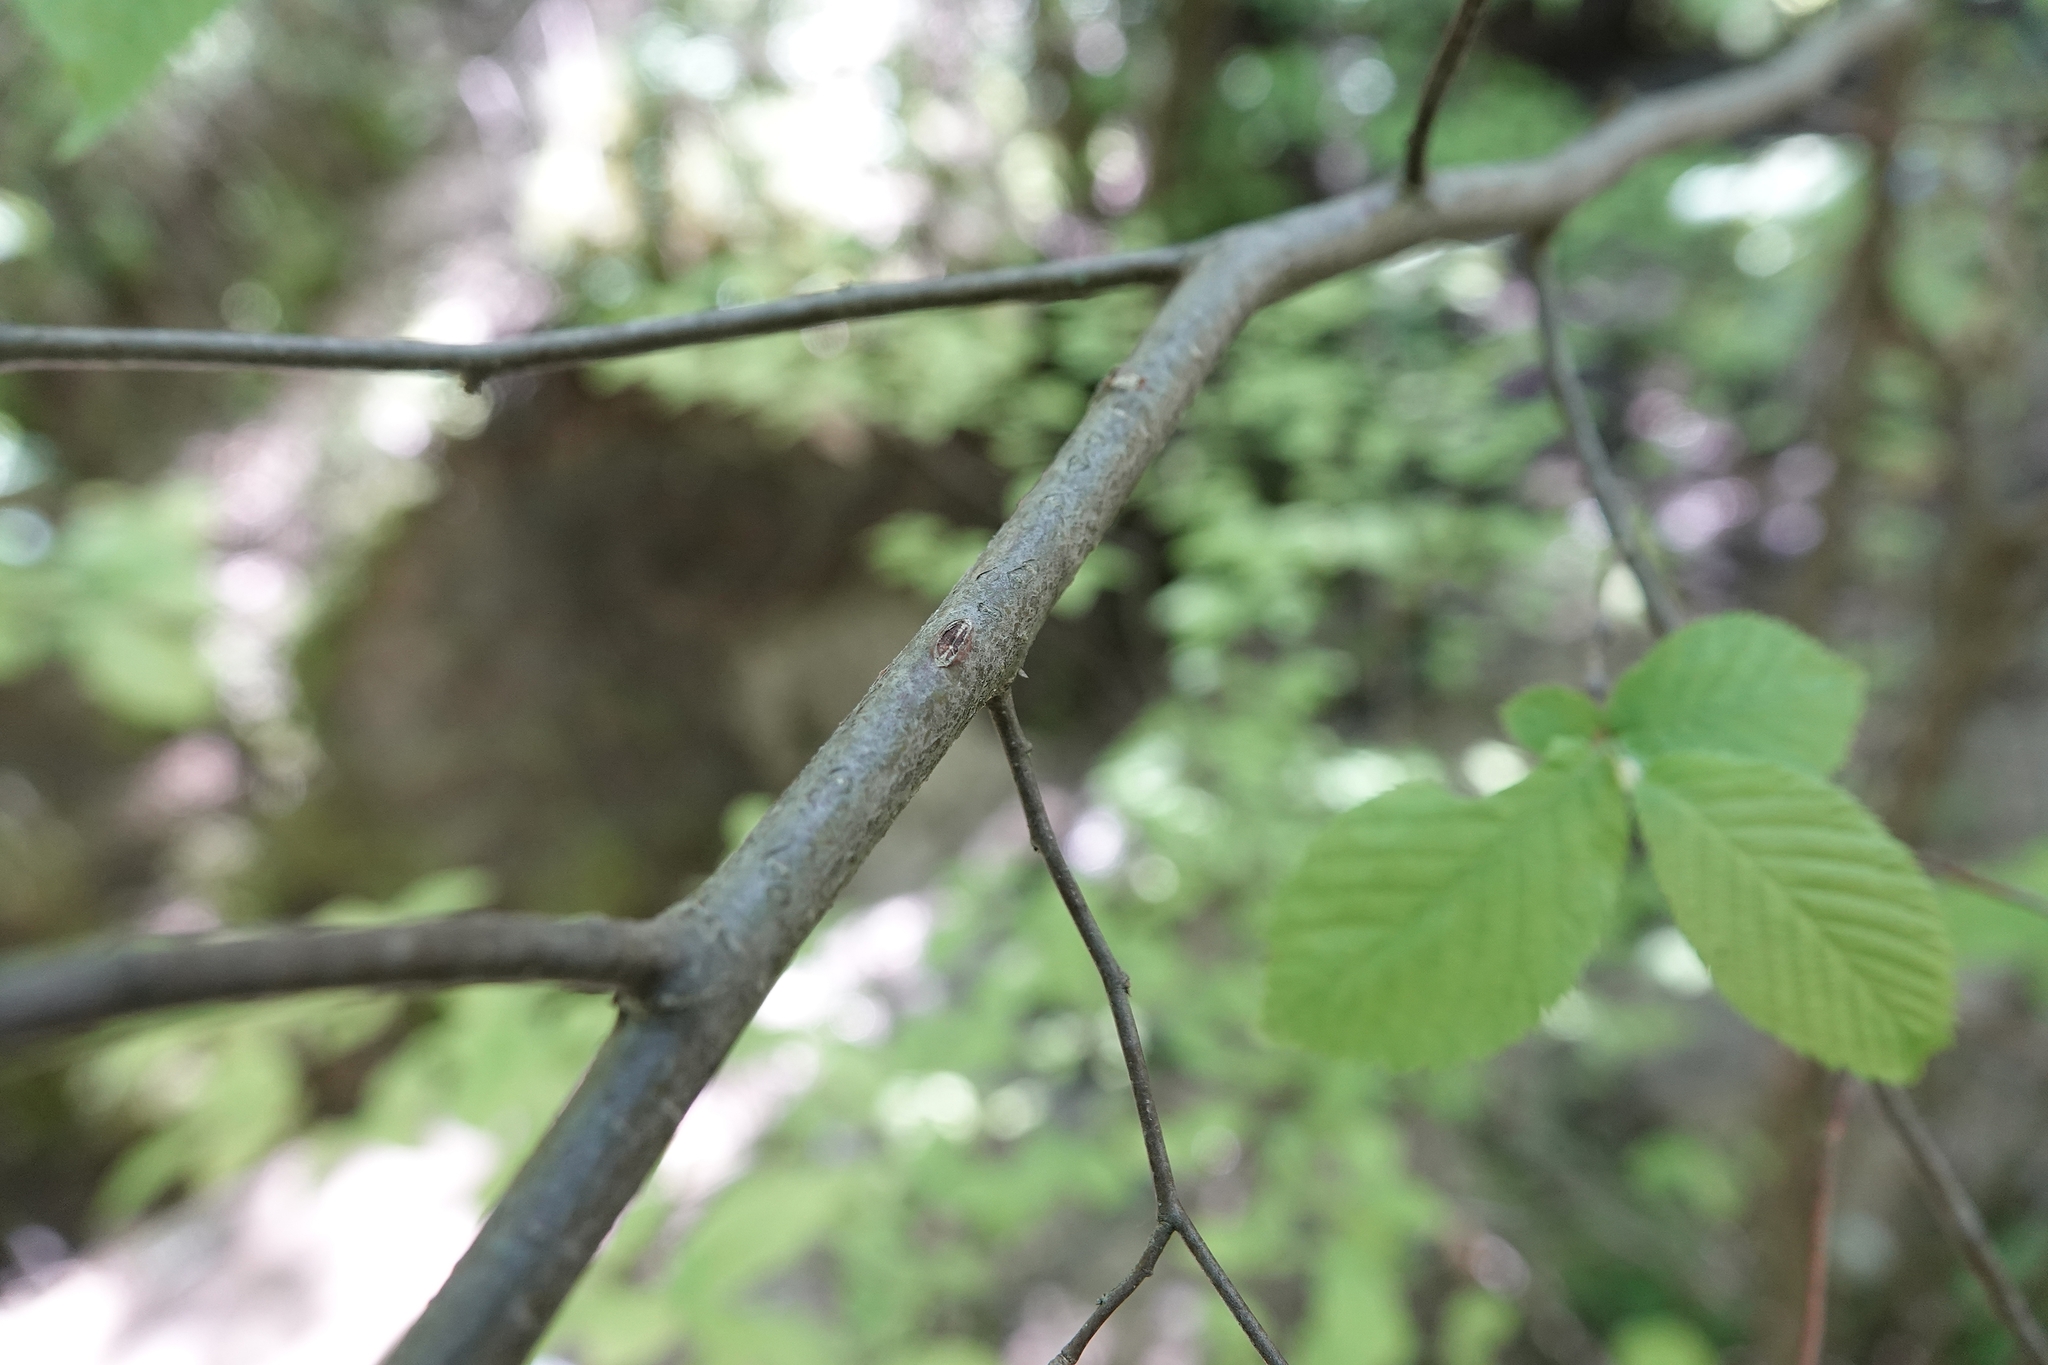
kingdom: Plantae
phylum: Tracheophyta
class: Magnoliopsida
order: Fagales
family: Betulaceae
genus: Ostrya
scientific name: Ostrya virginiana
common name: Ironwood
